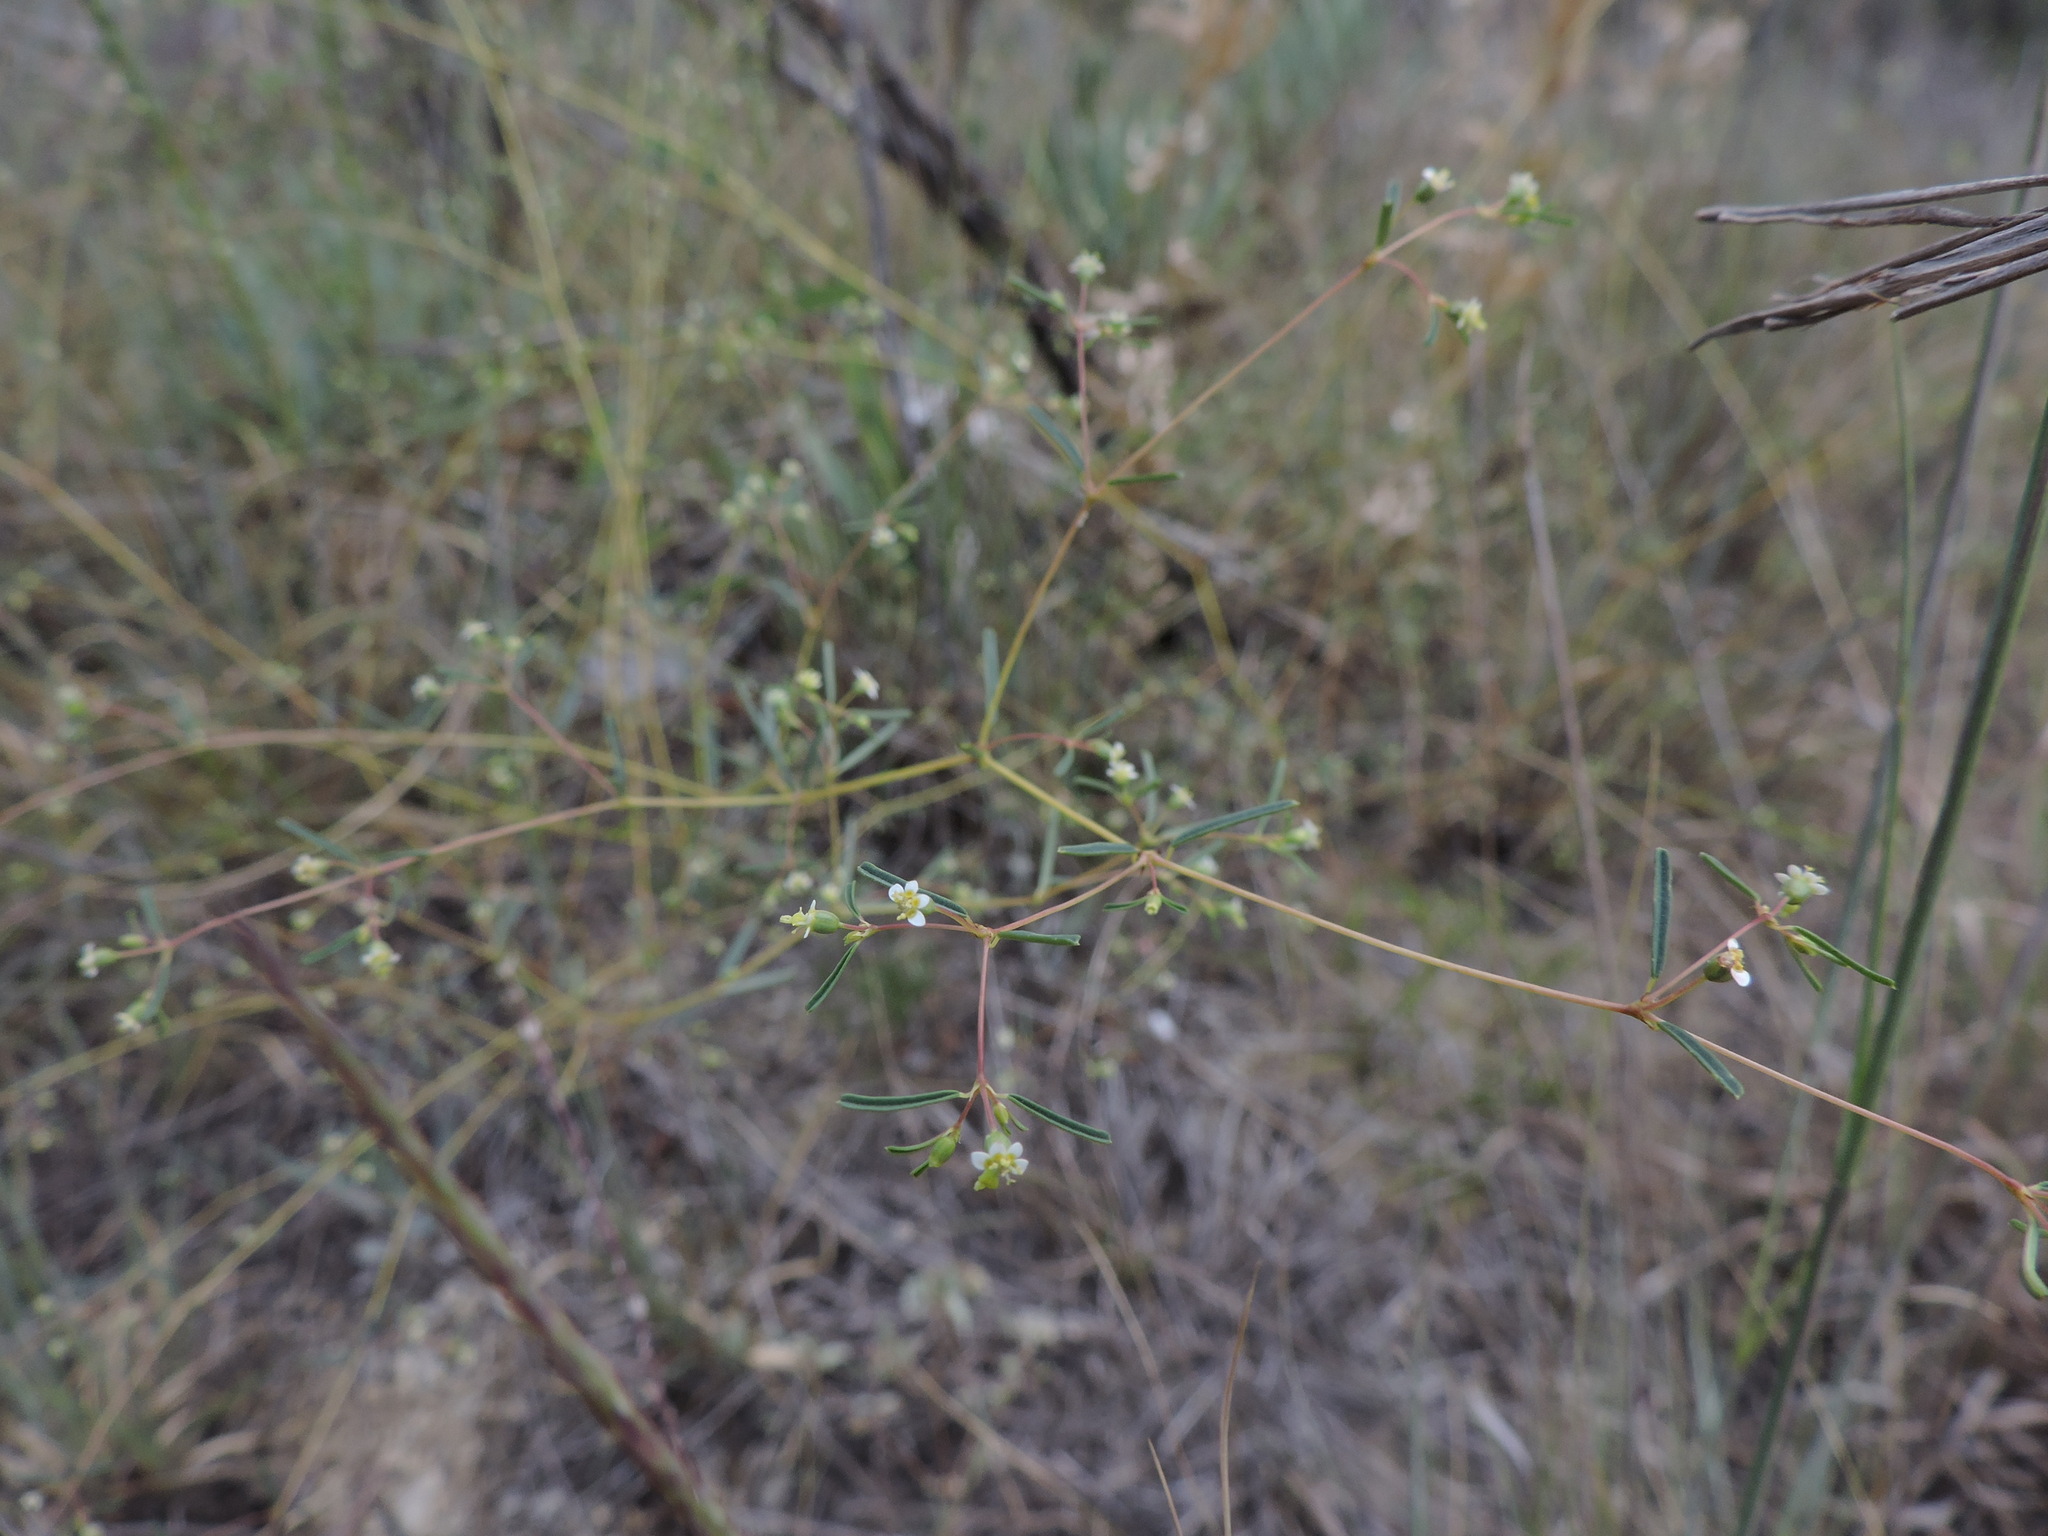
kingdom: Plantae
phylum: Tracheophyta
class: Magnoliopsida
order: Malpighiales
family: Euphorbiaceae
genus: Euphorbia
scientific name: Euphorbia missurica
